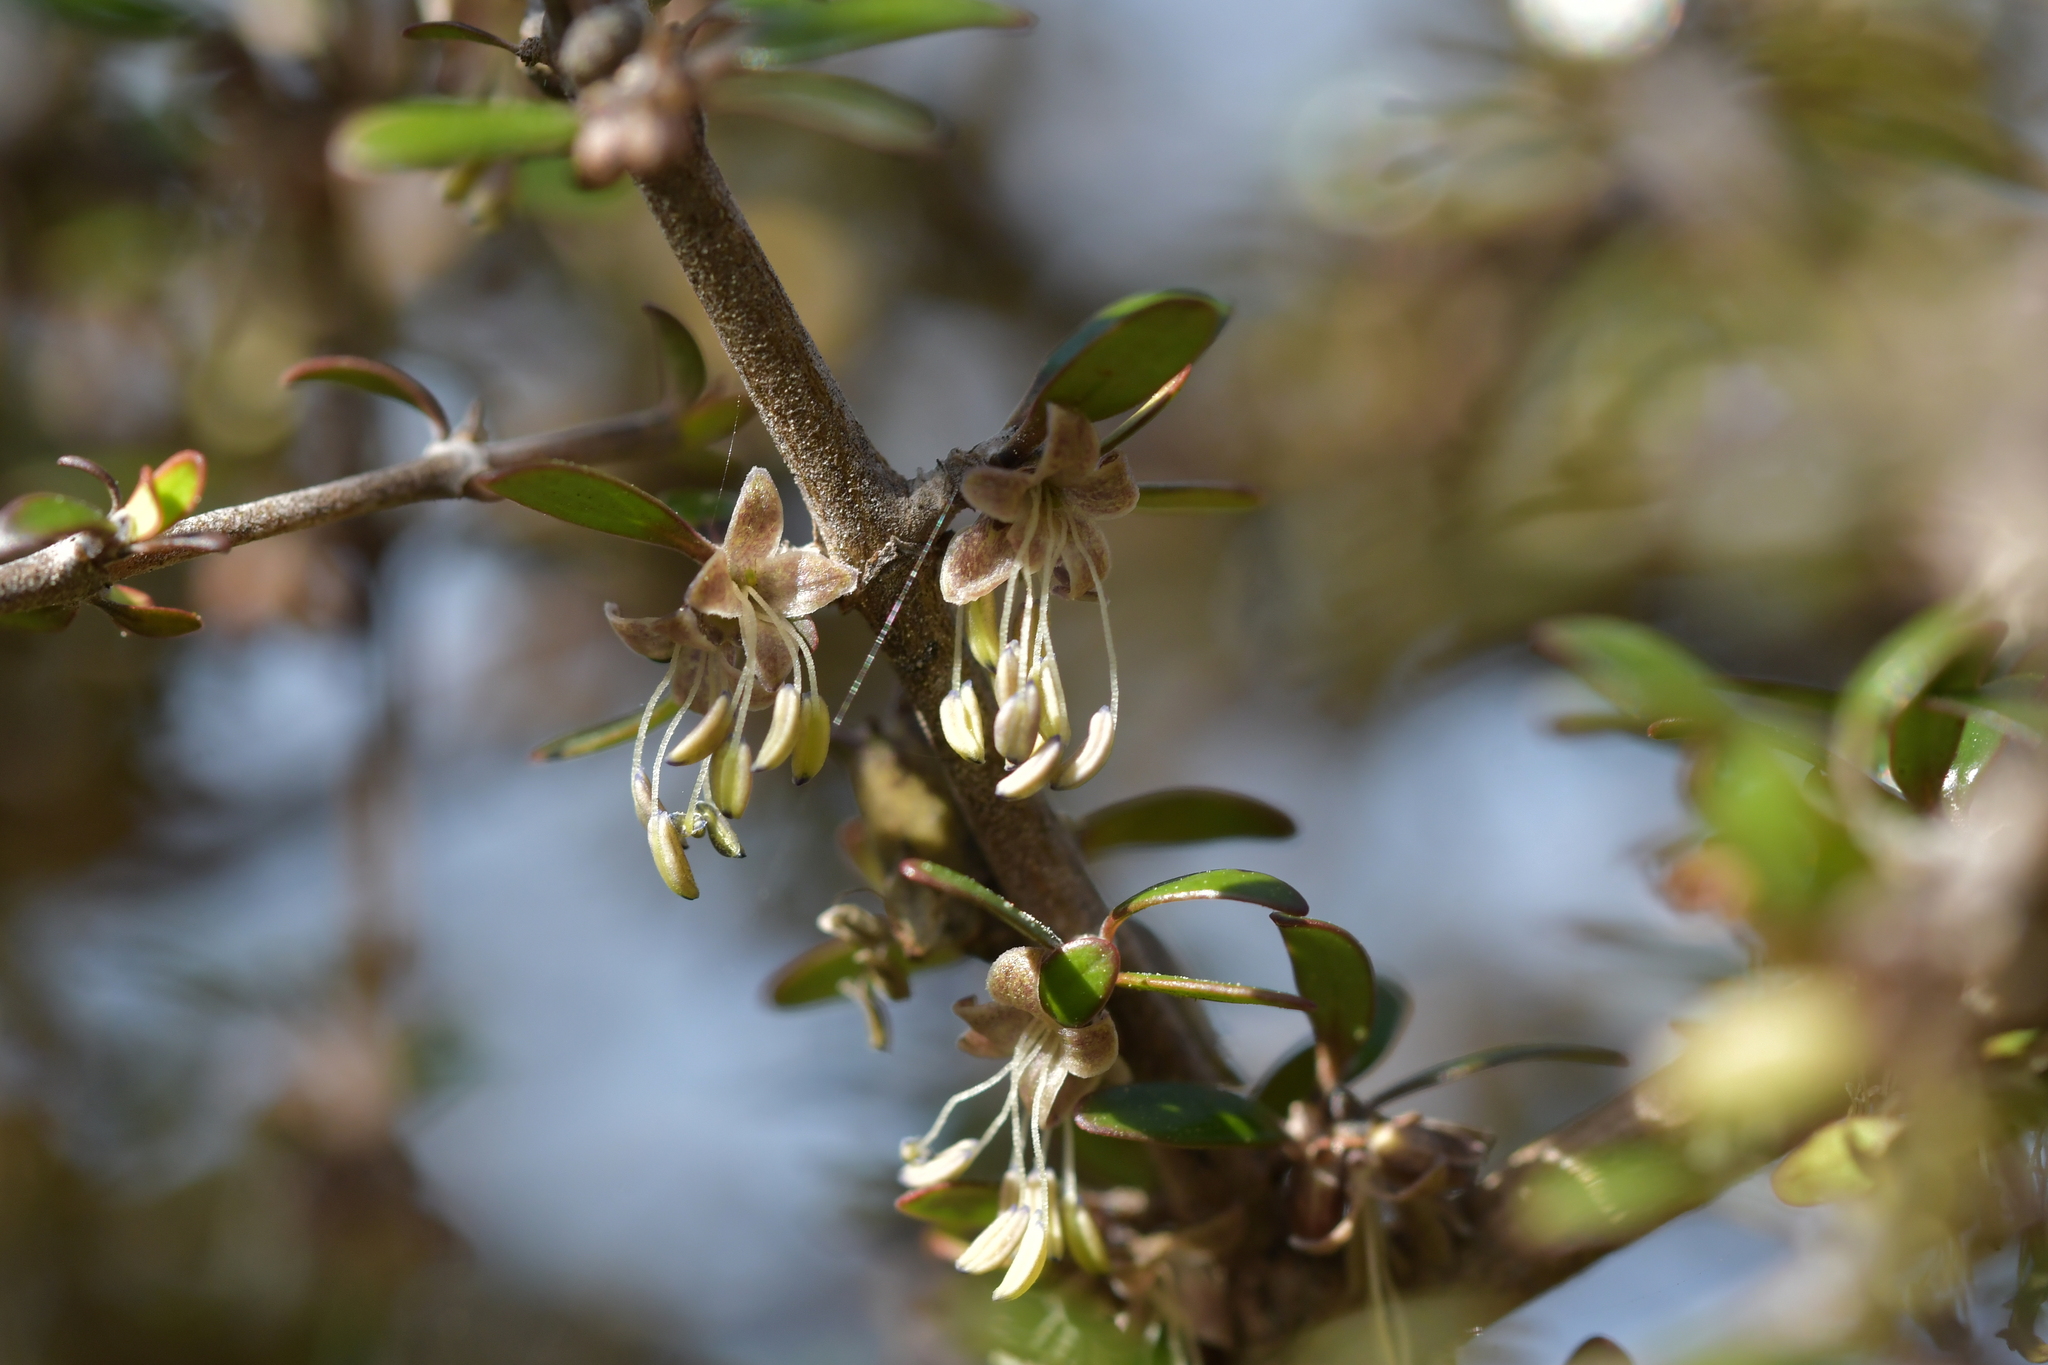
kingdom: Plantae
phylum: Tracheophyta
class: Magnoliopsida
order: Gentianales
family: Rubiaceae
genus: Coprosma
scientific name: Coprosma propinqua
